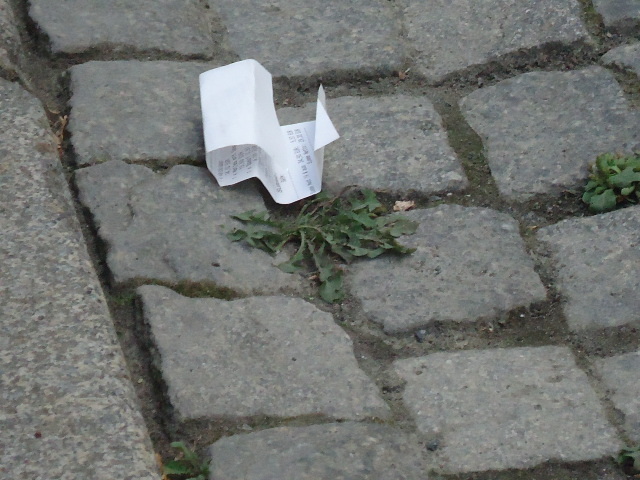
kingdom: Plantae
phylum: Tracheophyta
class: Magnoliopsida
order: Asterales
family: Asteraceae
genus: Taraxacum
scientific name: Taraxacum
